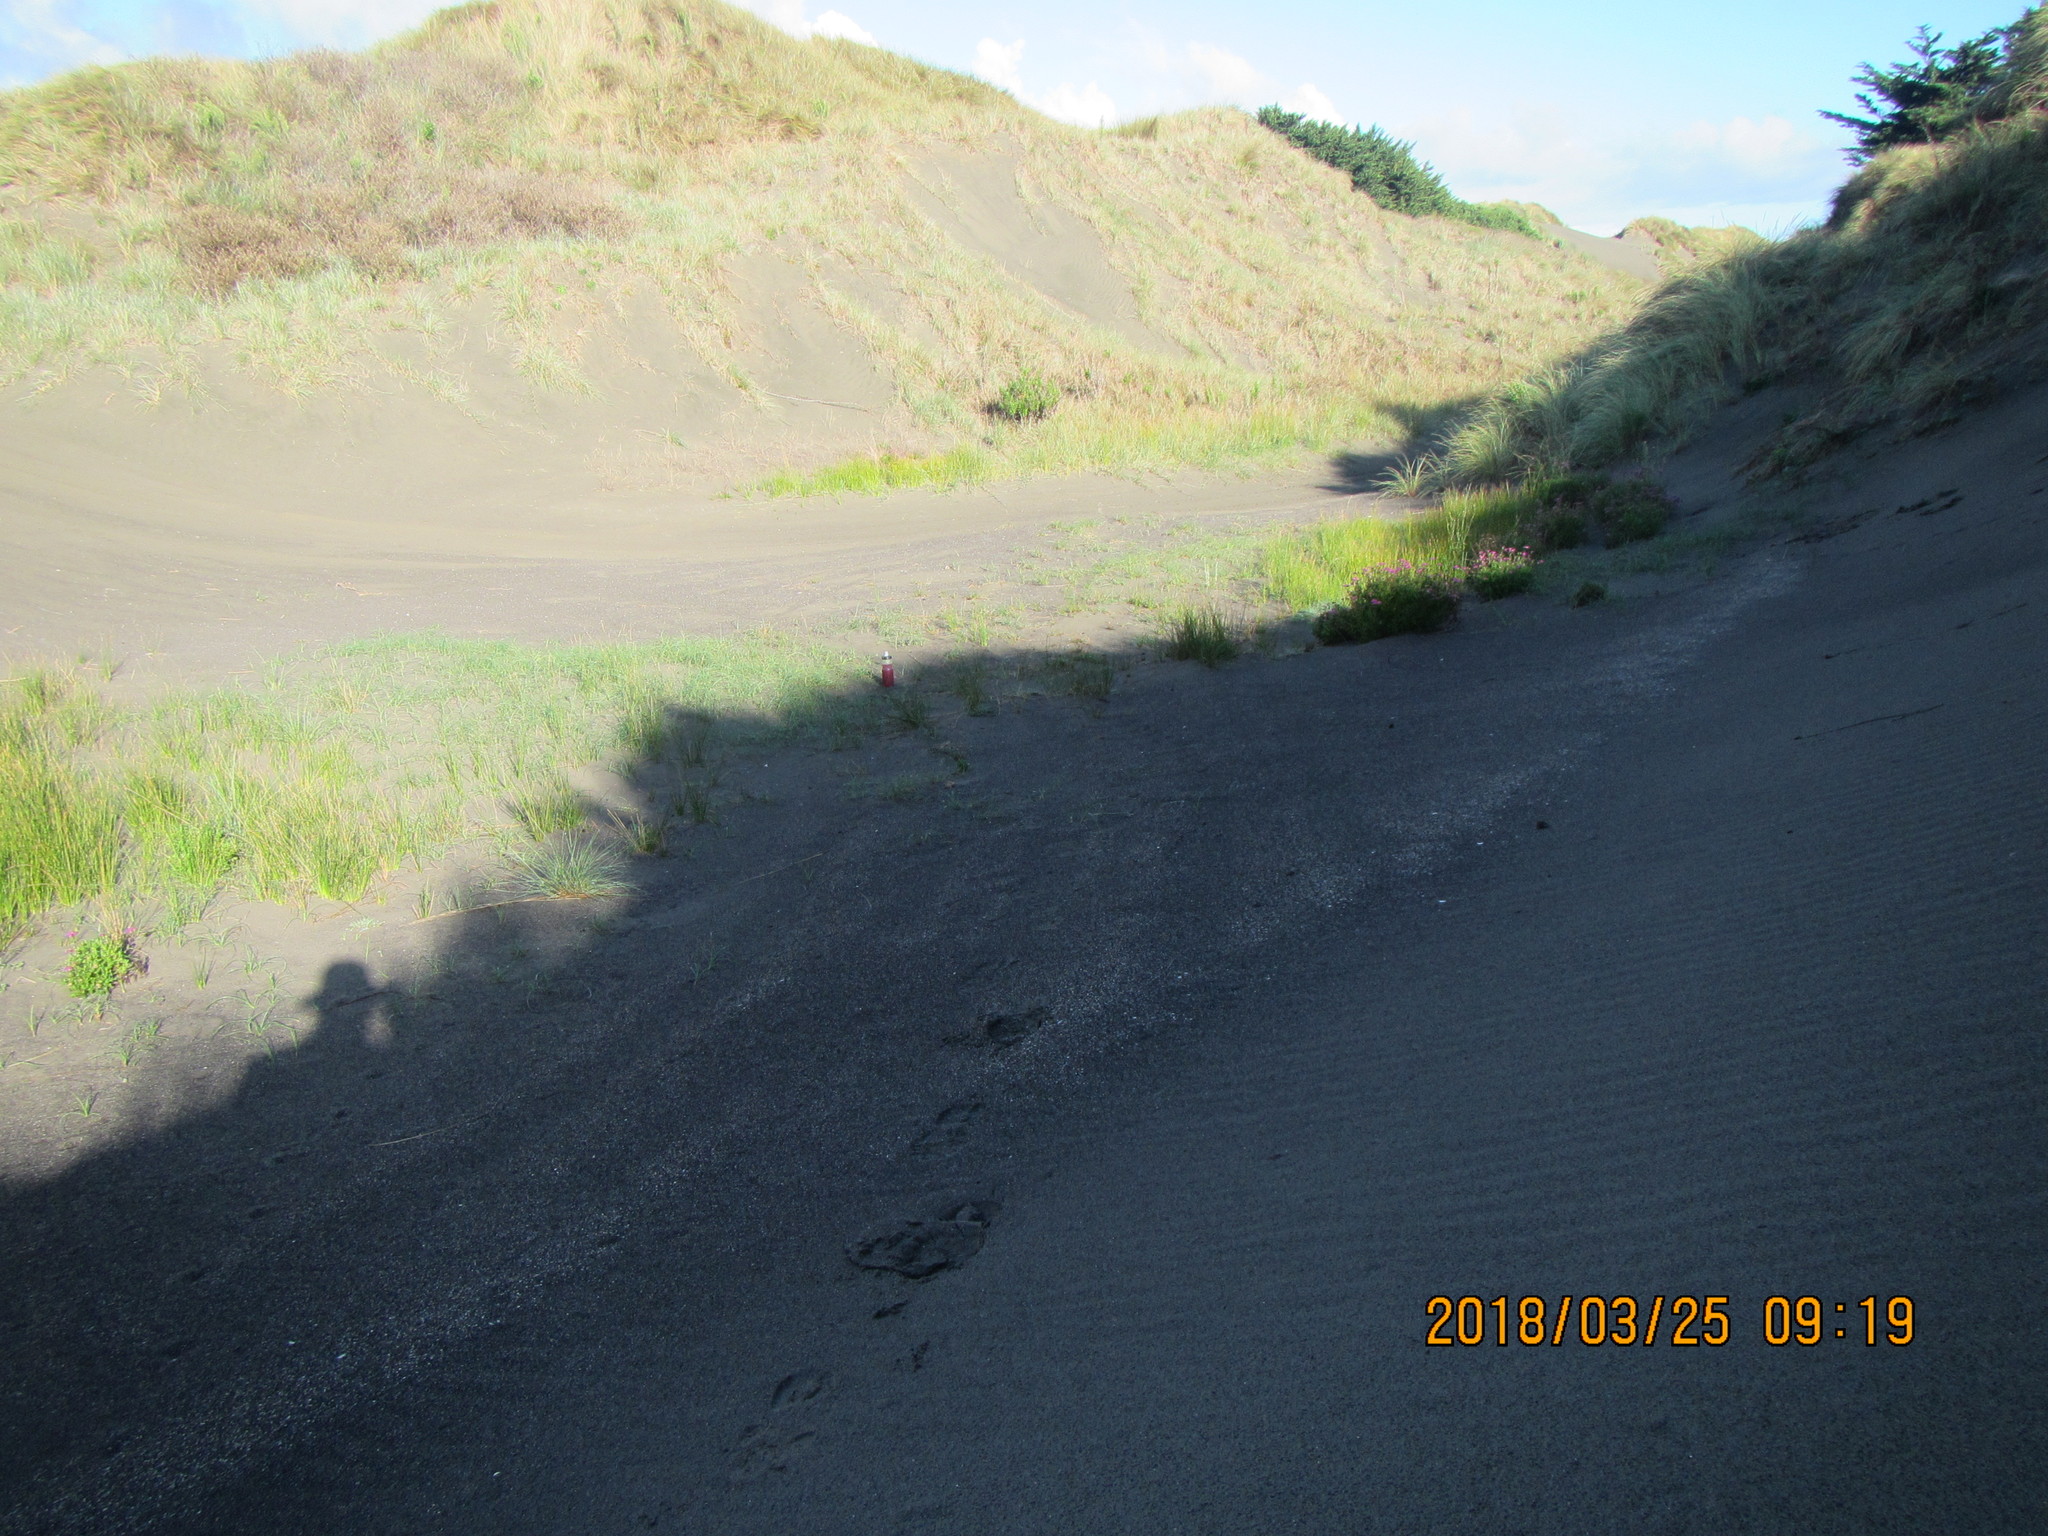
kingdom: Animalia
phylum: Mollusca
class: Gastropoda
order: Stylommatophora
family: Geomitridae
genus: Xeroplexa
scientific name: Xeroplexa intersecta
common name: Wrinkled snail
